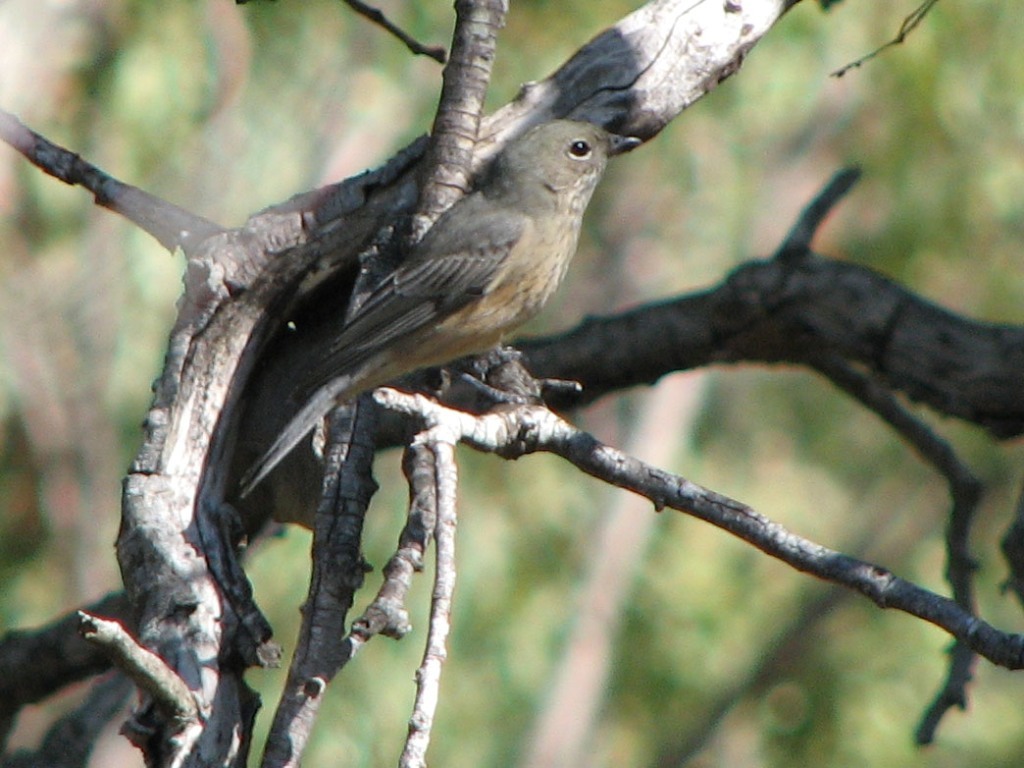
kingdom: Animalia
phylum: Chordata
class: Aves
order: Passeriformes
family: Pachycephalidae
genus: Pachycephala
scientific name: Pachycephala rufiventris
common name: Rufous whistler
